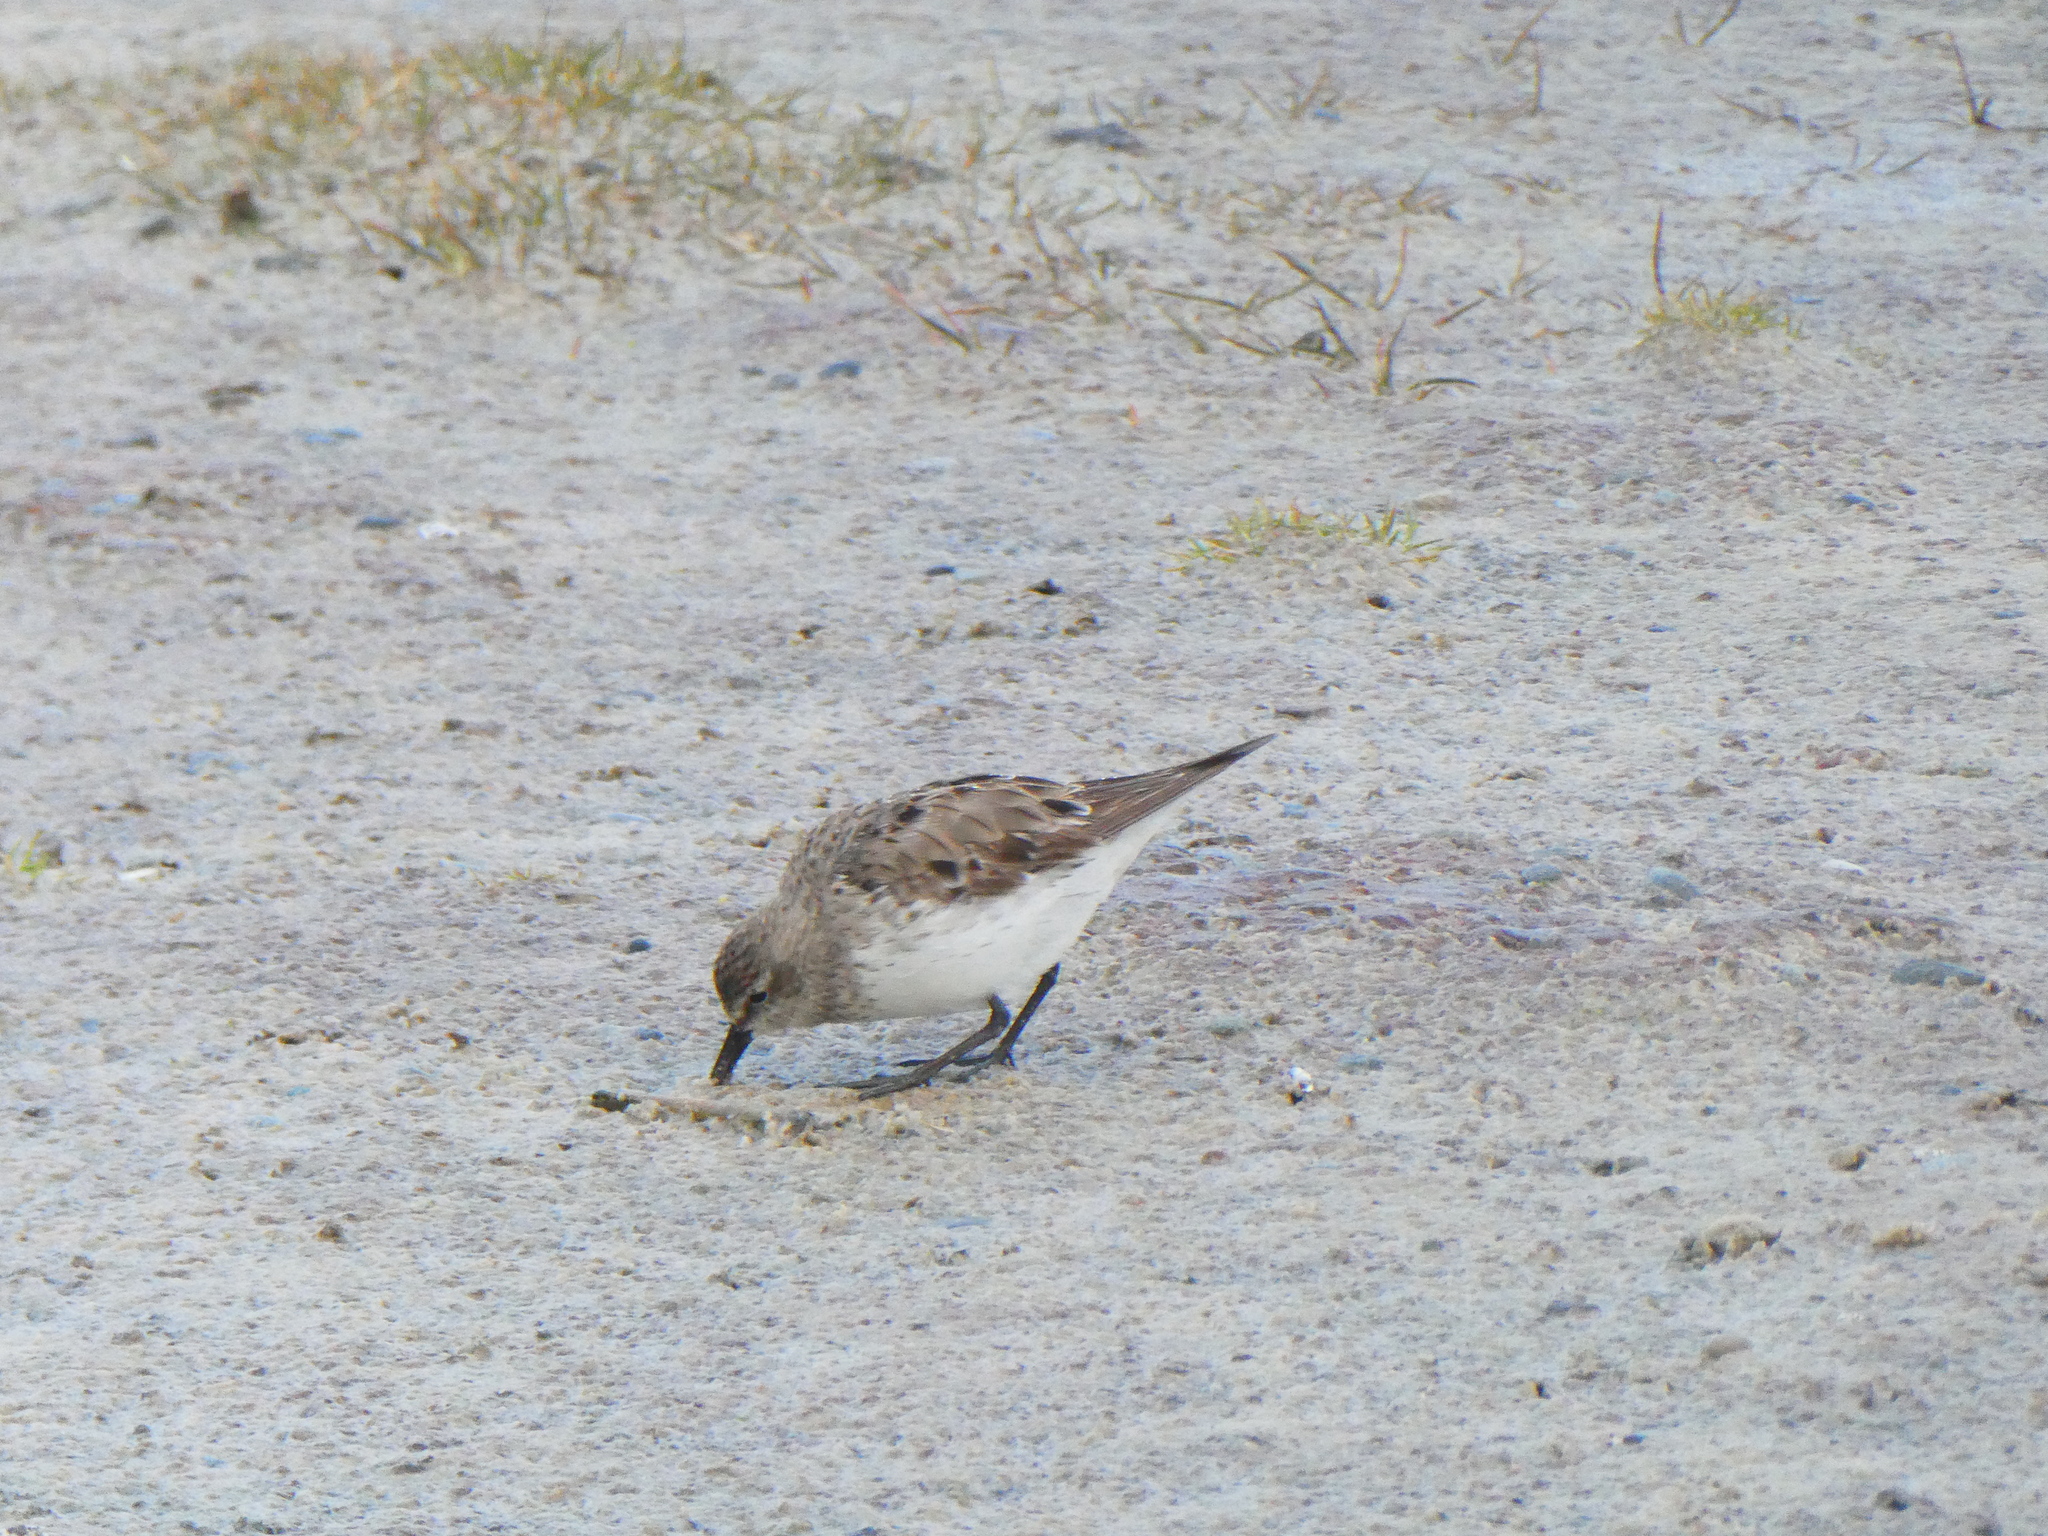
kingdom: Animalia
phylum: Chordata
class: Aves
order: Charadriiformes
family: Scolopacidae
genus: Calidris
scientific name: Calidris fuscicollis
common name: White-rumped sandpiper
